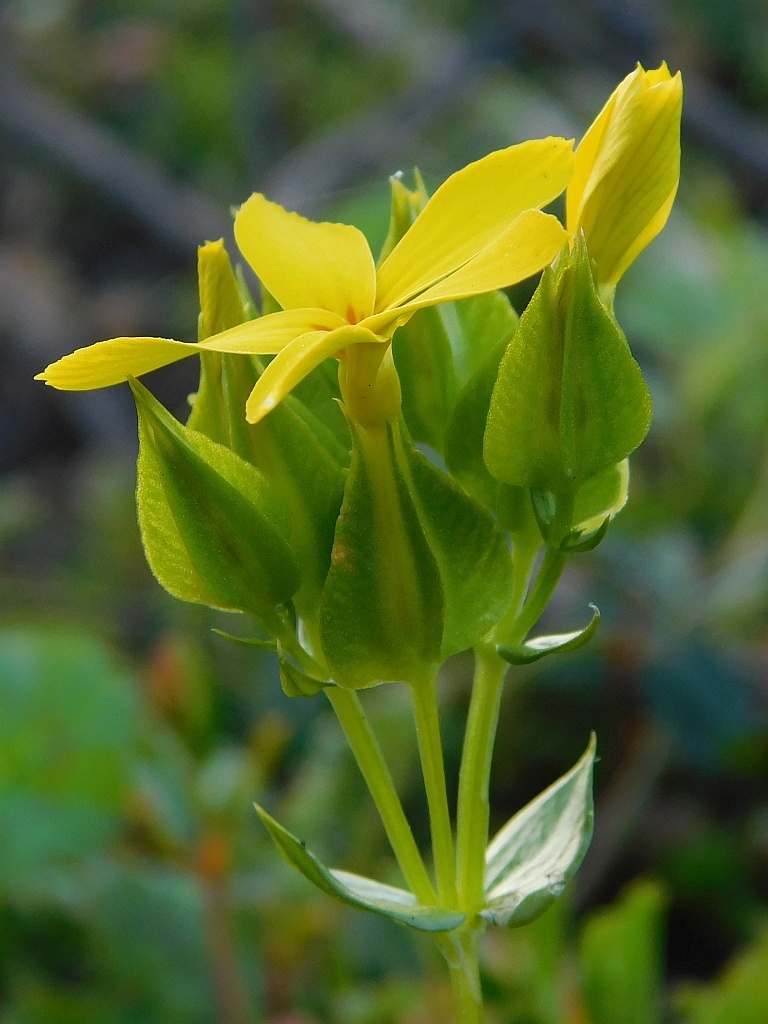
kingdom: Plantae
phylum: Tracheophyta
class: Magnoliopsida
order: Gentianales
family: Gentianaceae
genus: Sebaea
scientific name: Sebaea exacoides
